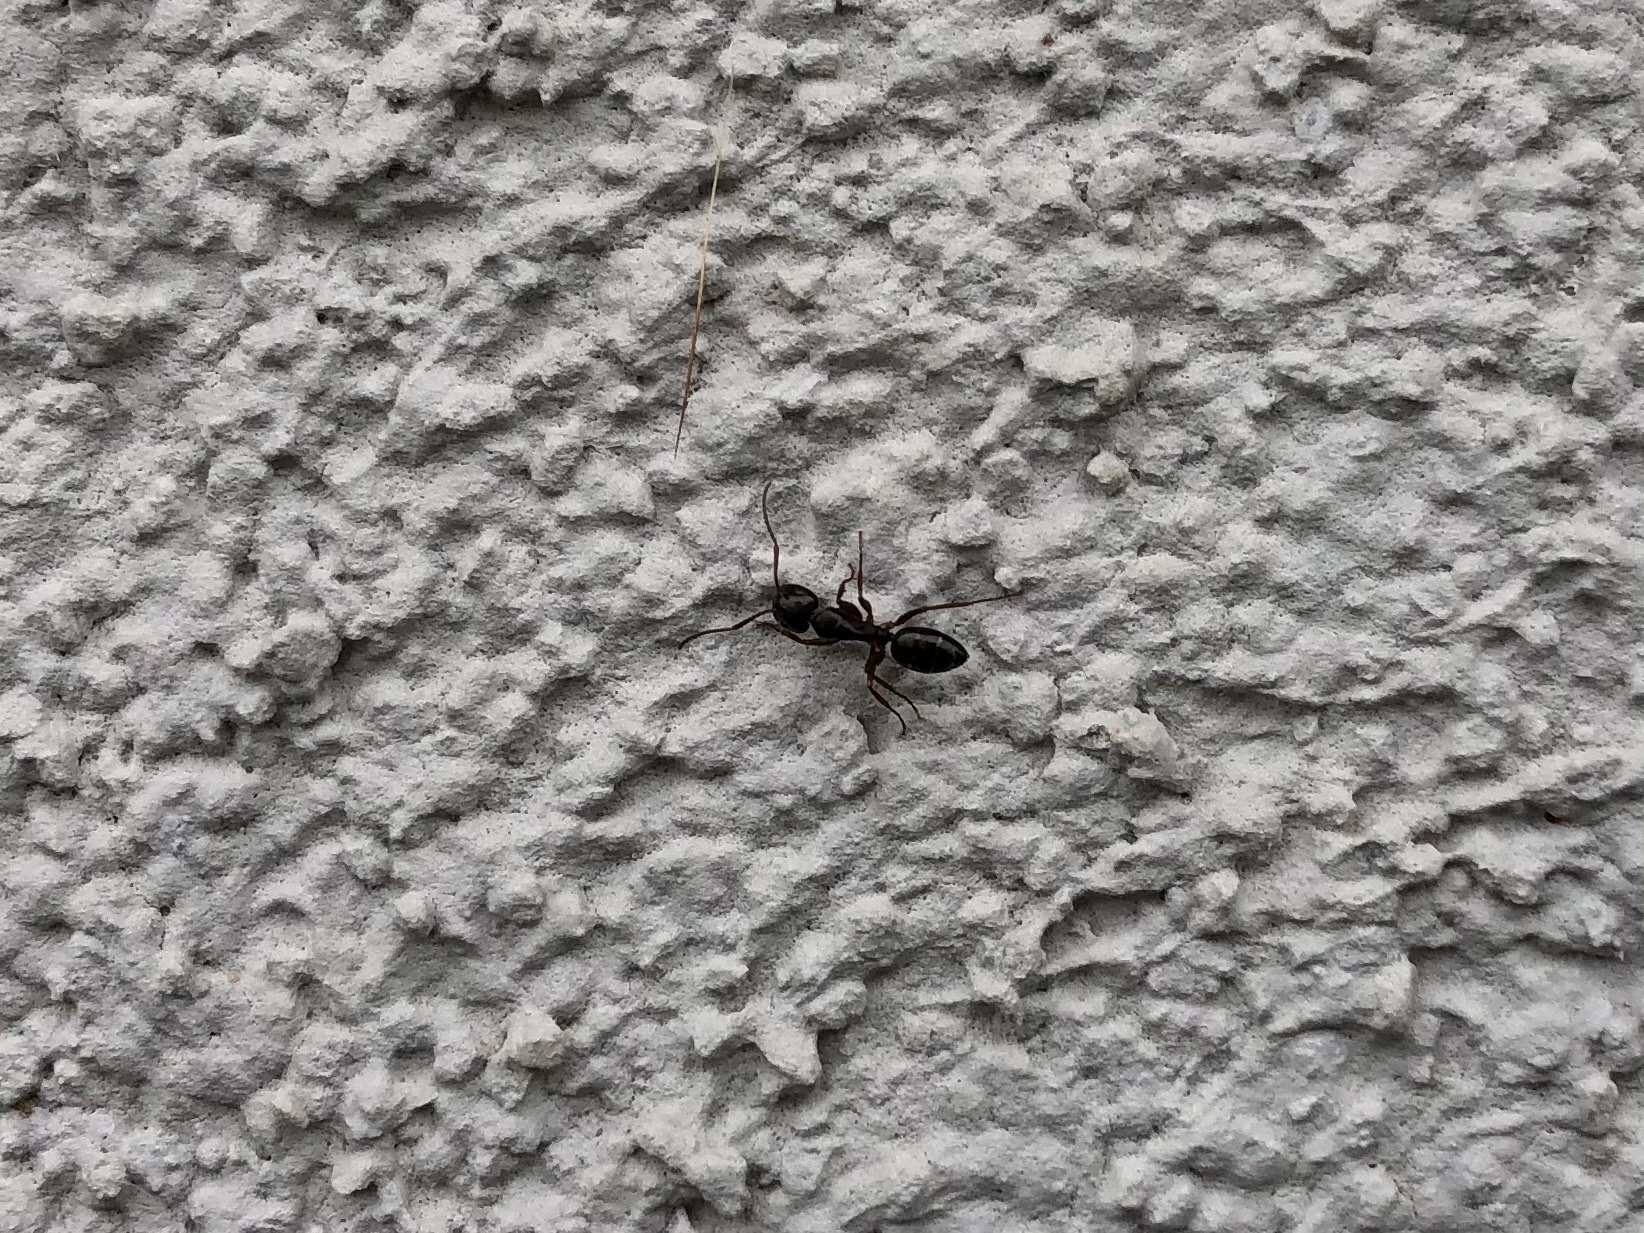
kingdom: Animalia
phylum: Arthropoda
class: Insecta
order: Hymenoptera
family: Formicidae
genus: Camponotus
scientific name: Camponotus fallax
